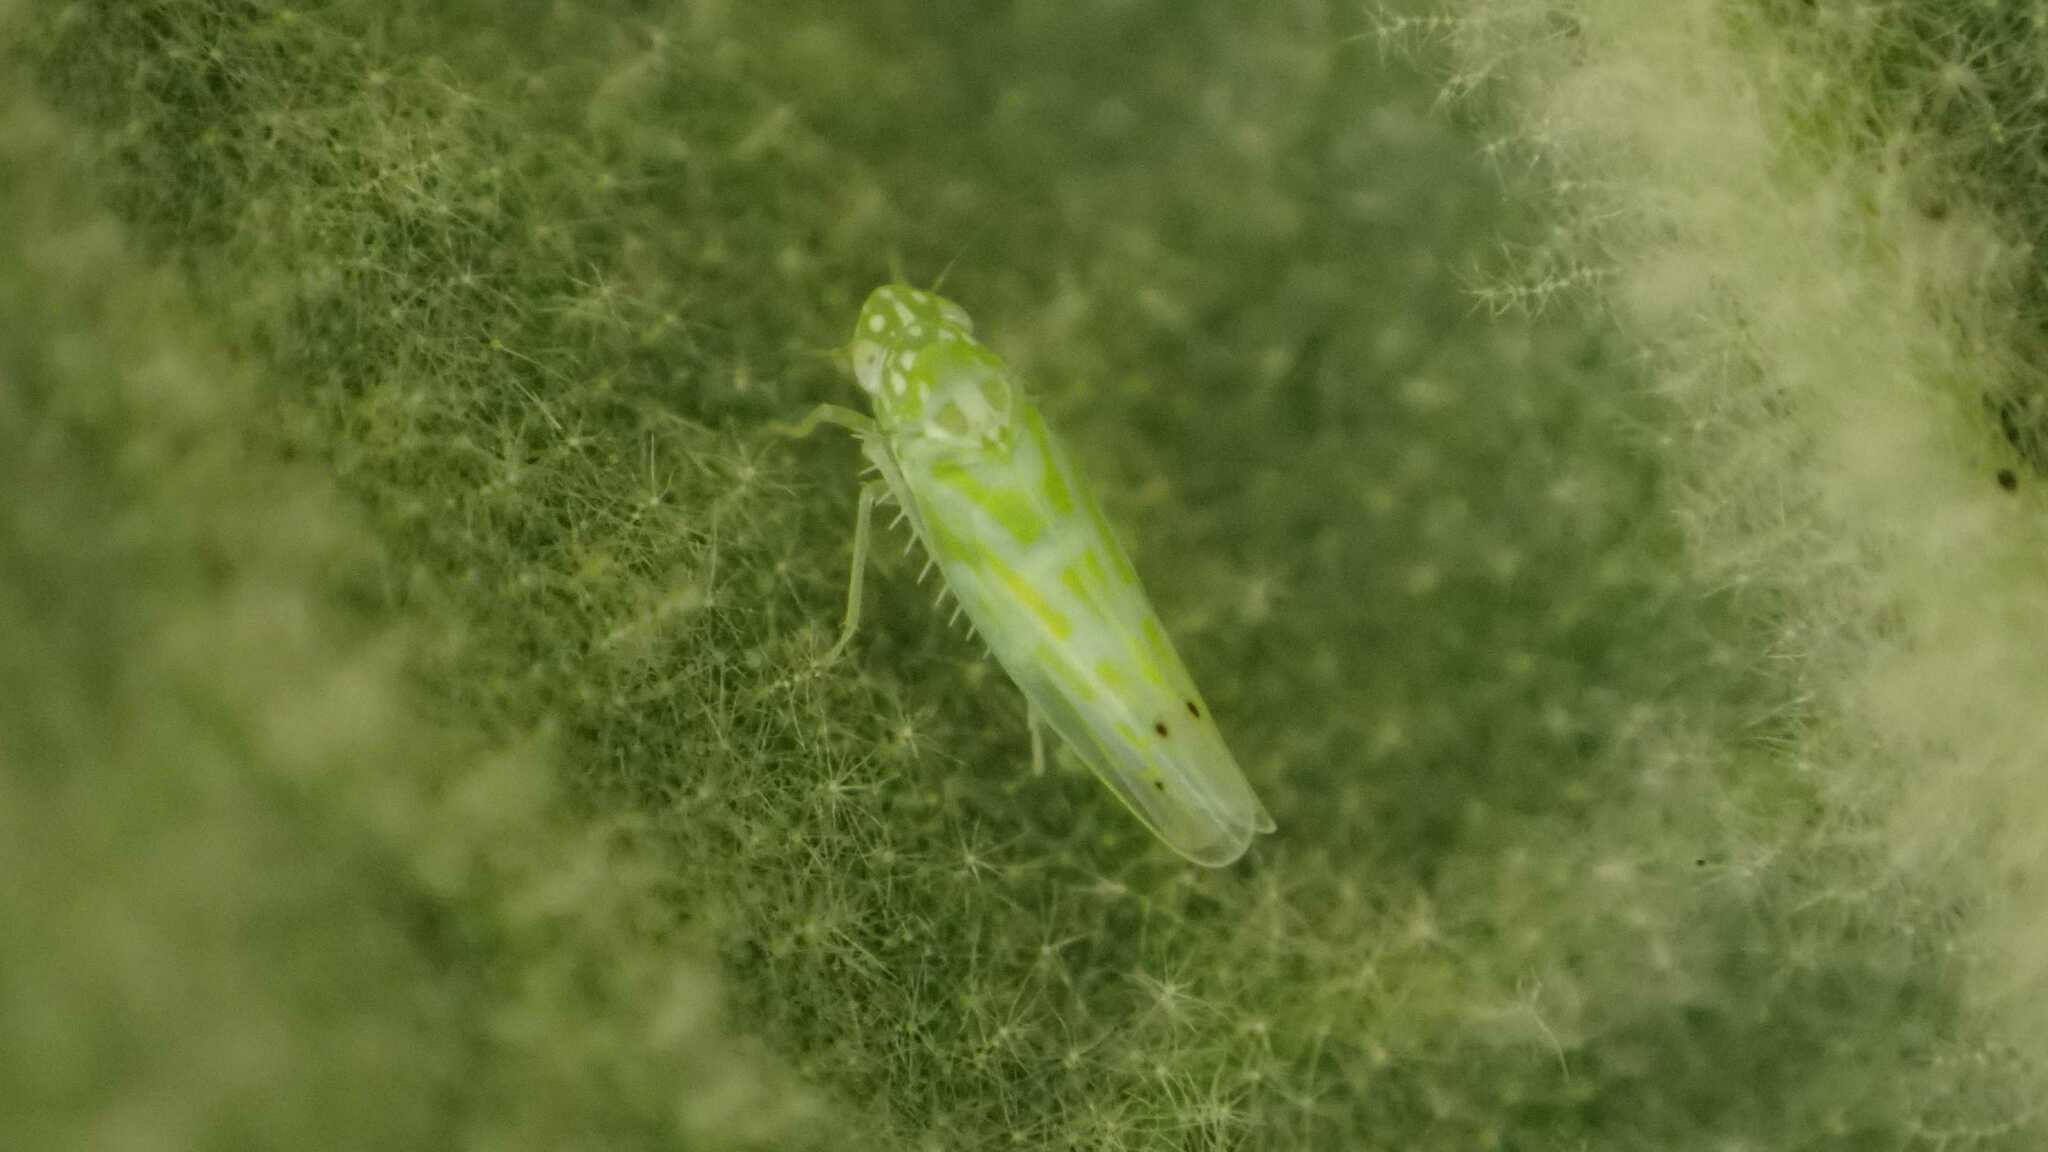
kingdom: Animalia
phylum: Arthropoda
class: Insecta
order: Hemiptera
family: Cicadellidae
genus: Micantulina
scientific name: Micantulina stigmatipennis
